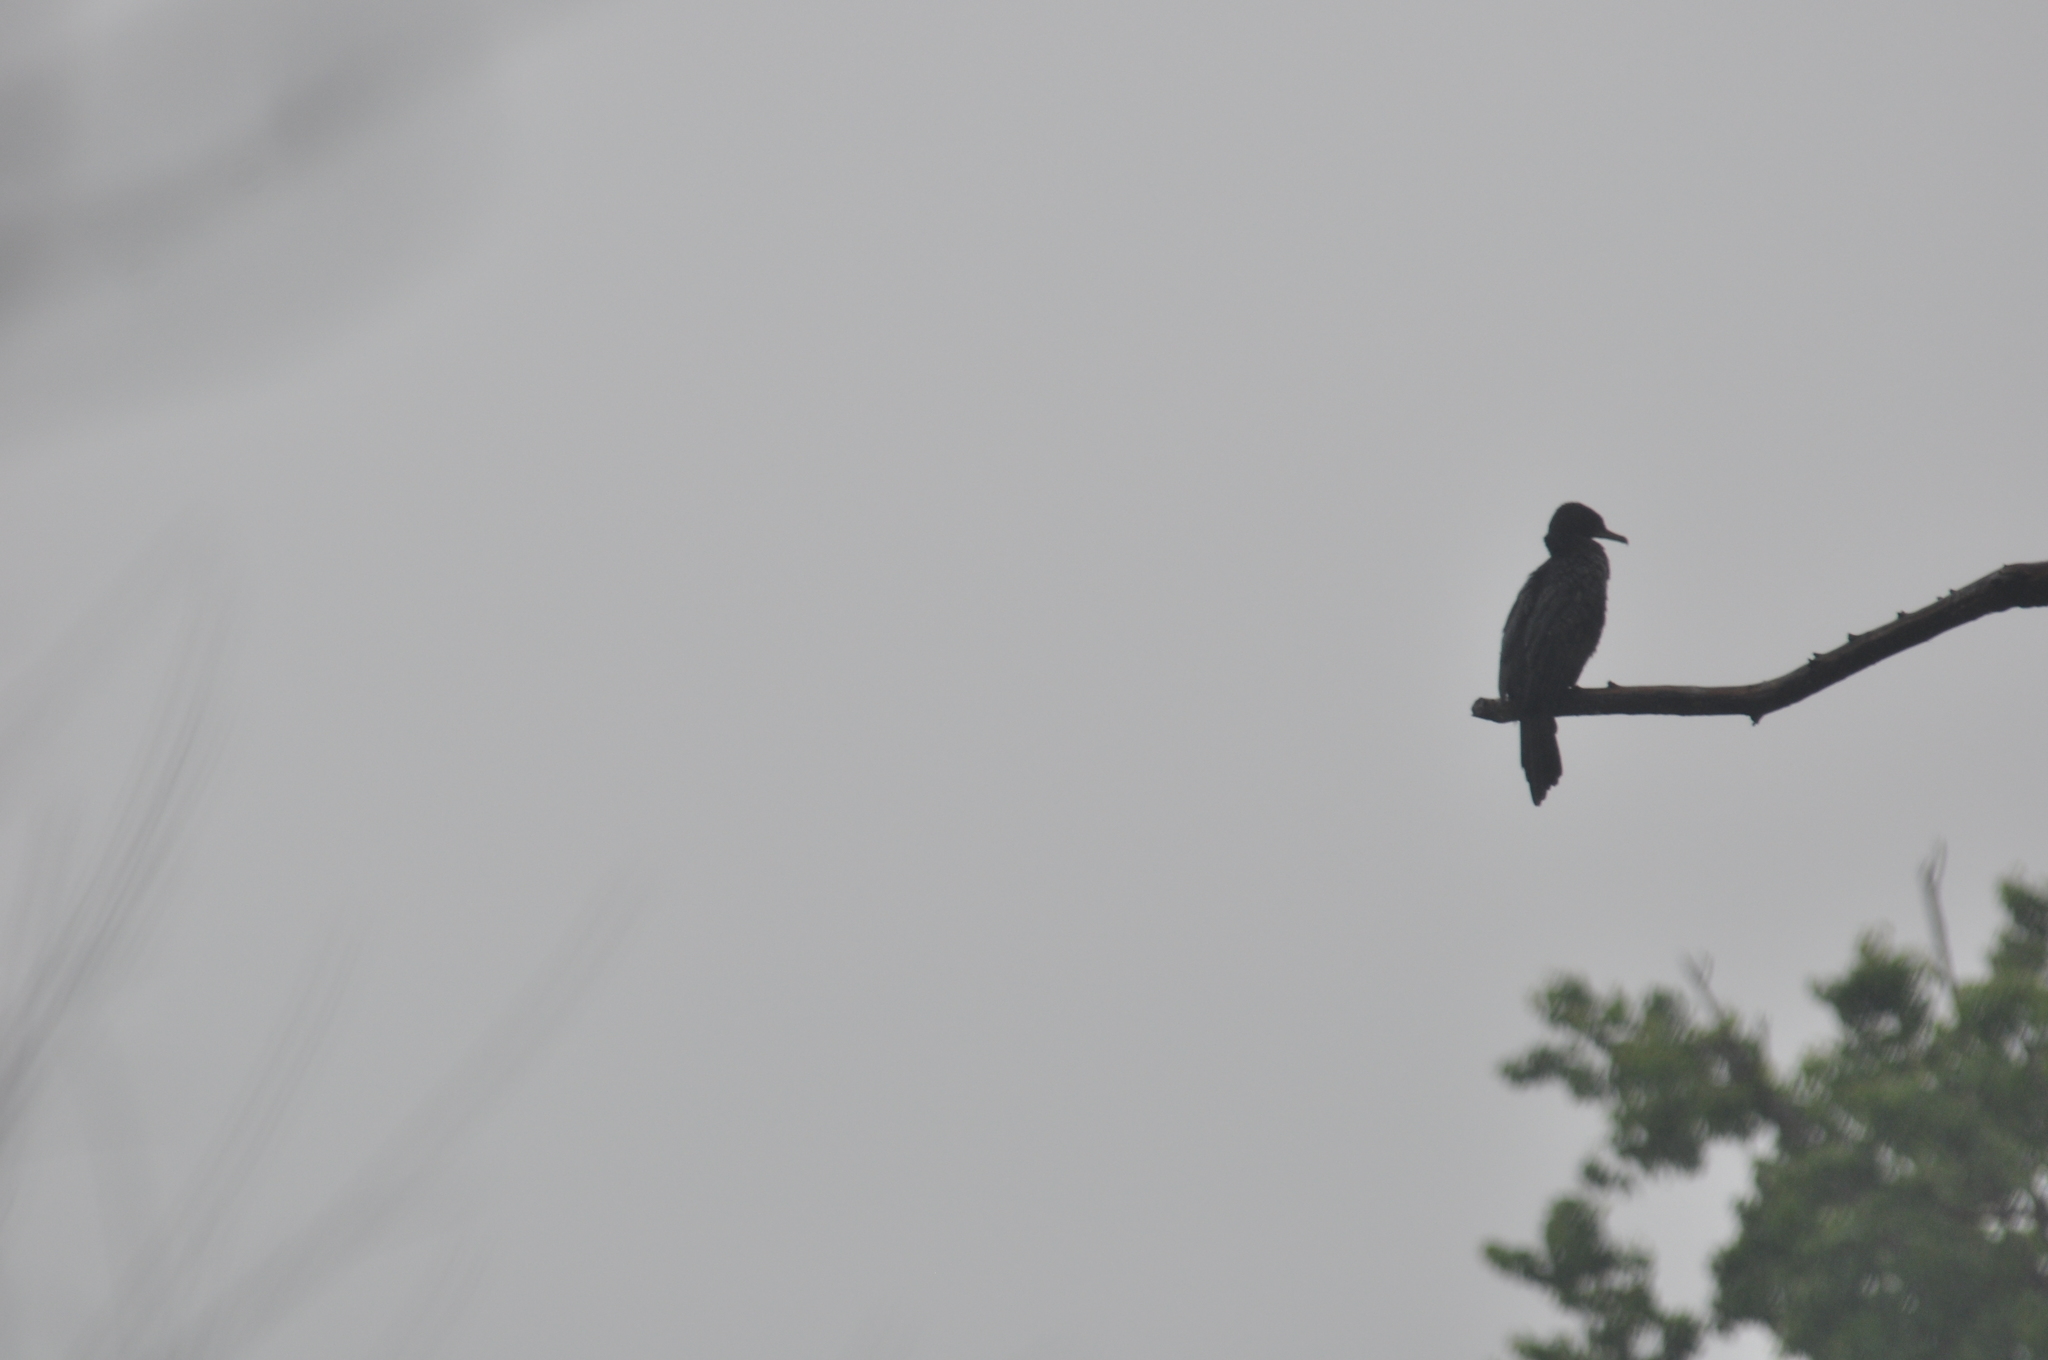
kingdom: Animalia
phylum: Chordata
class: Aves
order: Suliformes
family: Phalacrocoracidae
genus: Phalacrocorax
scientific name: Phalacrocorax brasilianus
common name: Neotropic cormorant
